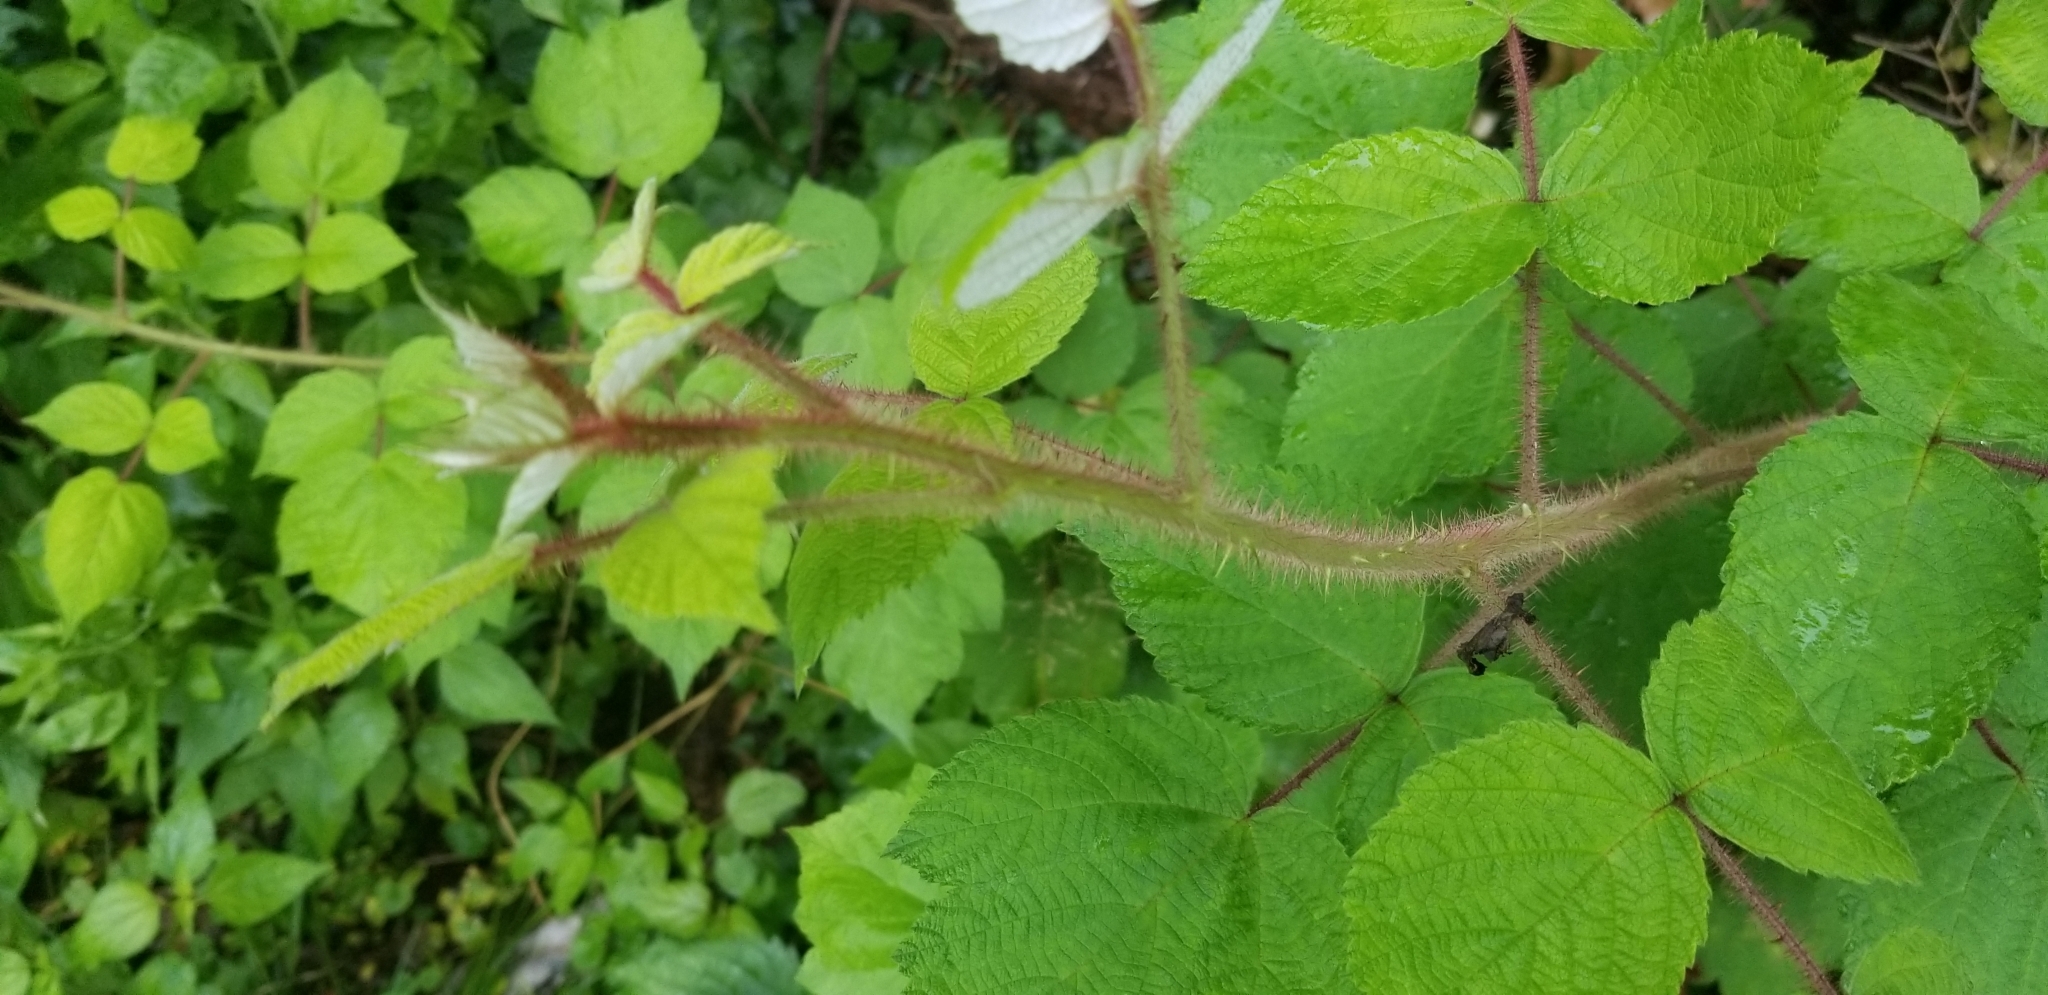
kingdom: Plantae
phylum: Tracheophyta
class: Magnoliopsida
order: Rosales
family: Rosaceae
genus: Rubus
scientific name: Rubus phoenicolasius
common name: Japanese wineberry
